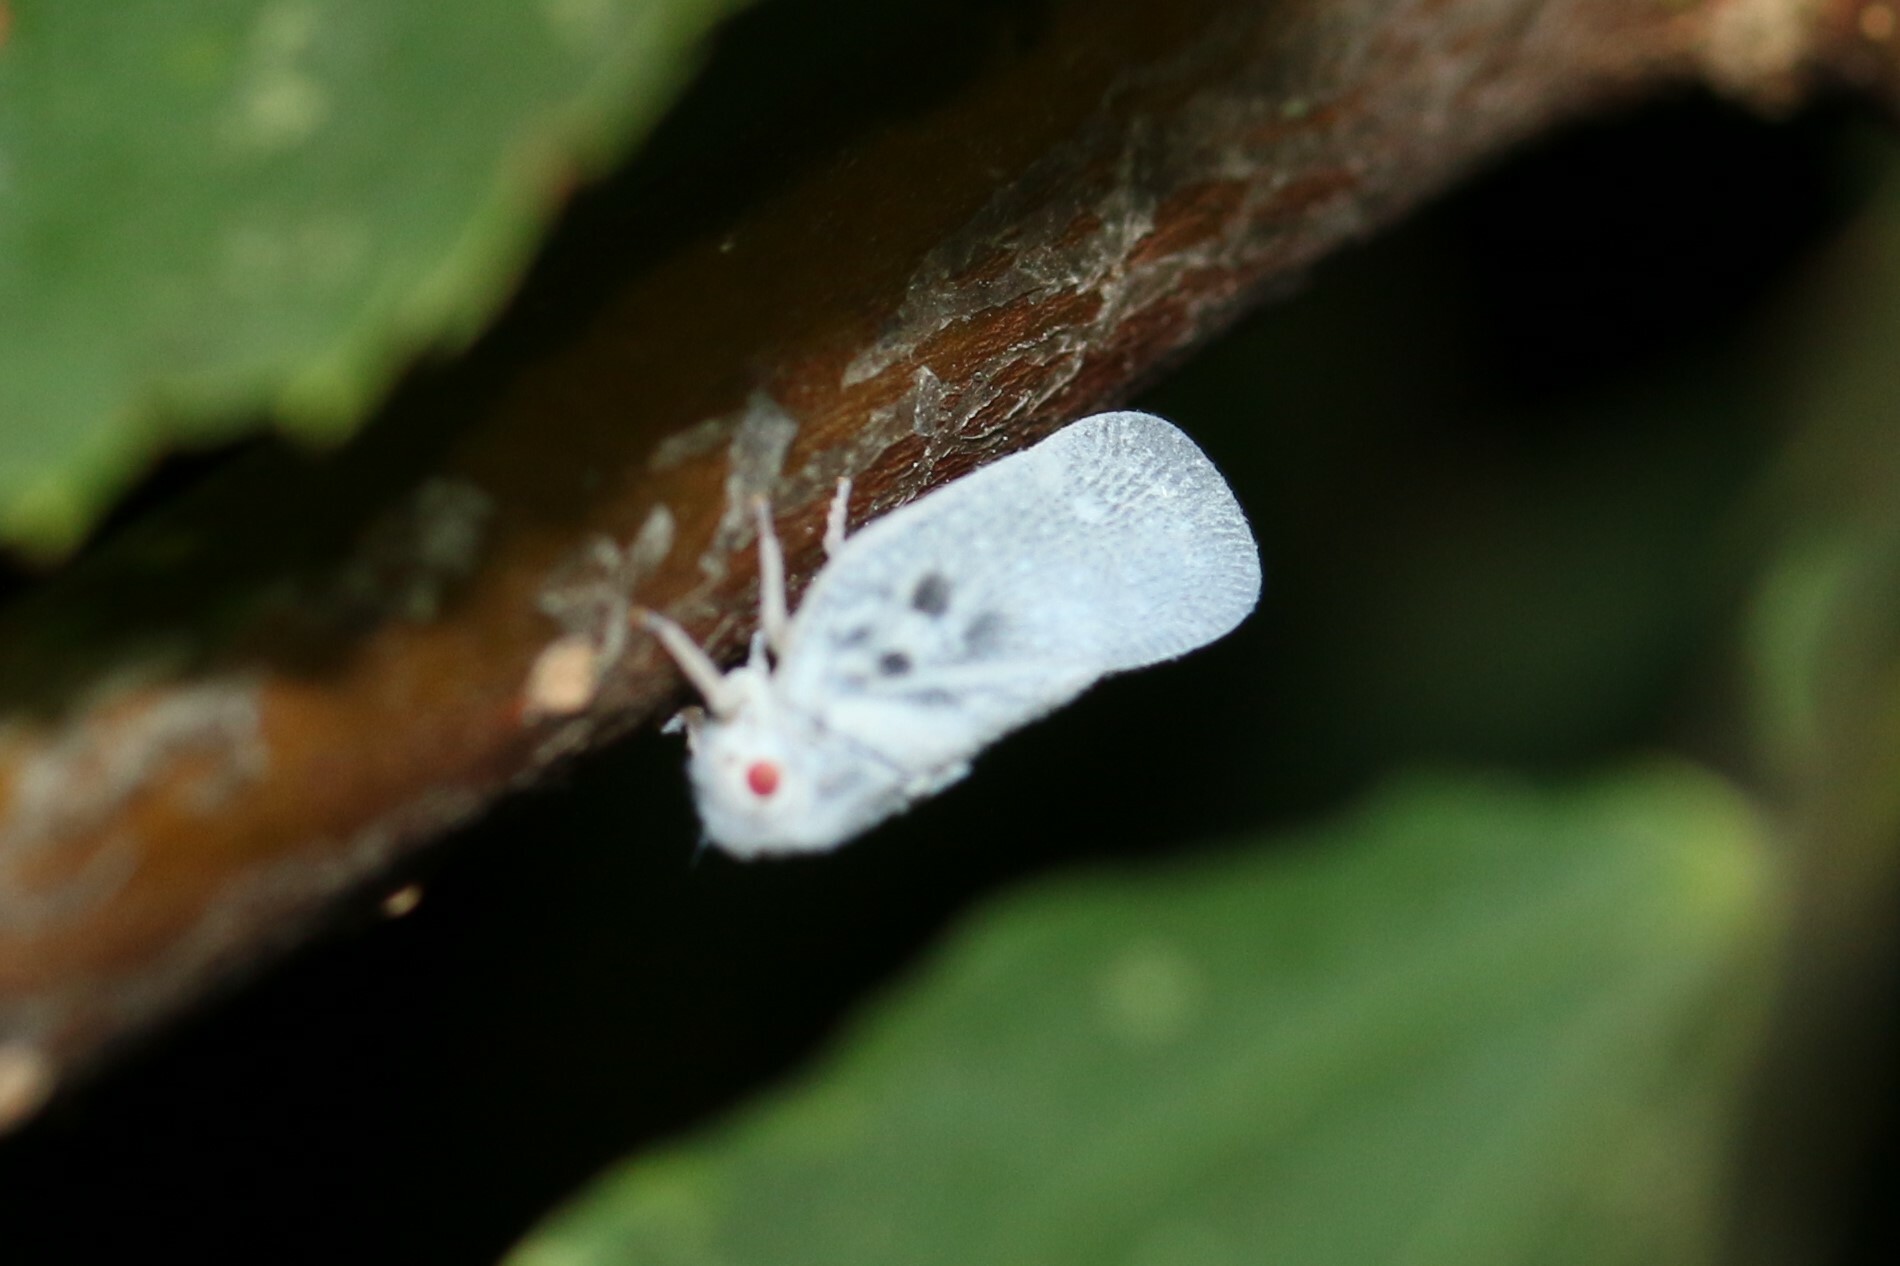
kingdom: Animalia
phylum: Arthropoda
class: Insecta
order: Hemiptera
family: Flatidae
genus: Metcalfa
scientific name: Metcalfa pruinosa
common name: Citrus flatid planthopper
